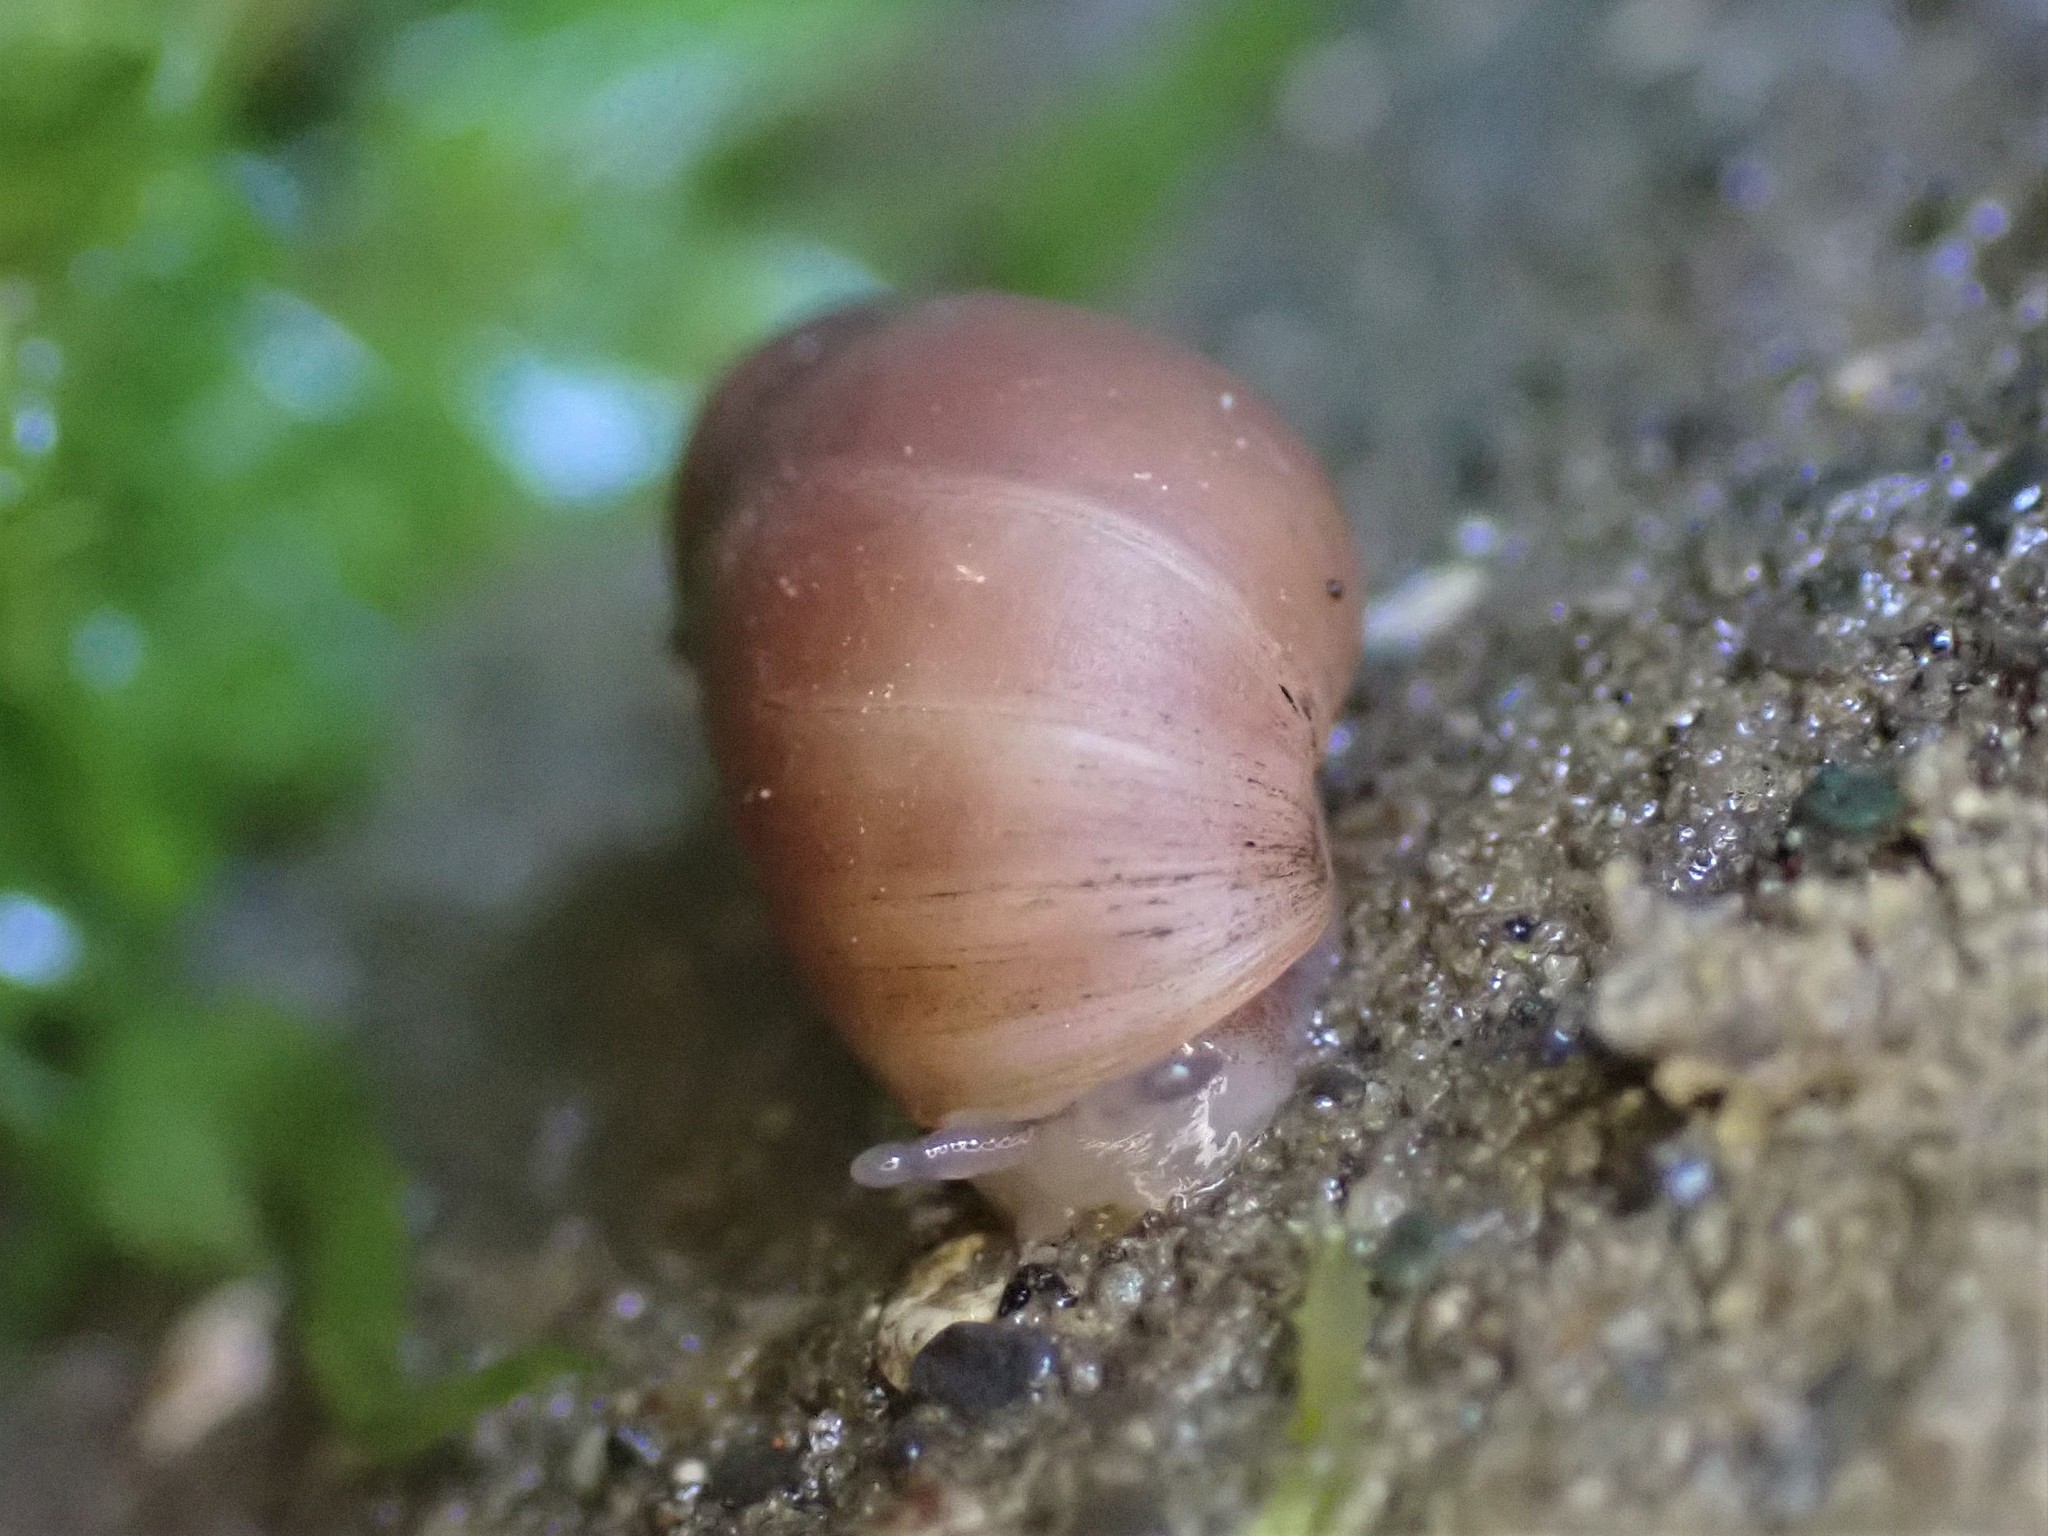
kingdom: Animalia
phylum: Mollusca
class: Gastropoda
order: Ellobiida
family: Ellobiidae
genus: Marinula
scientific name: Marinula filholi
